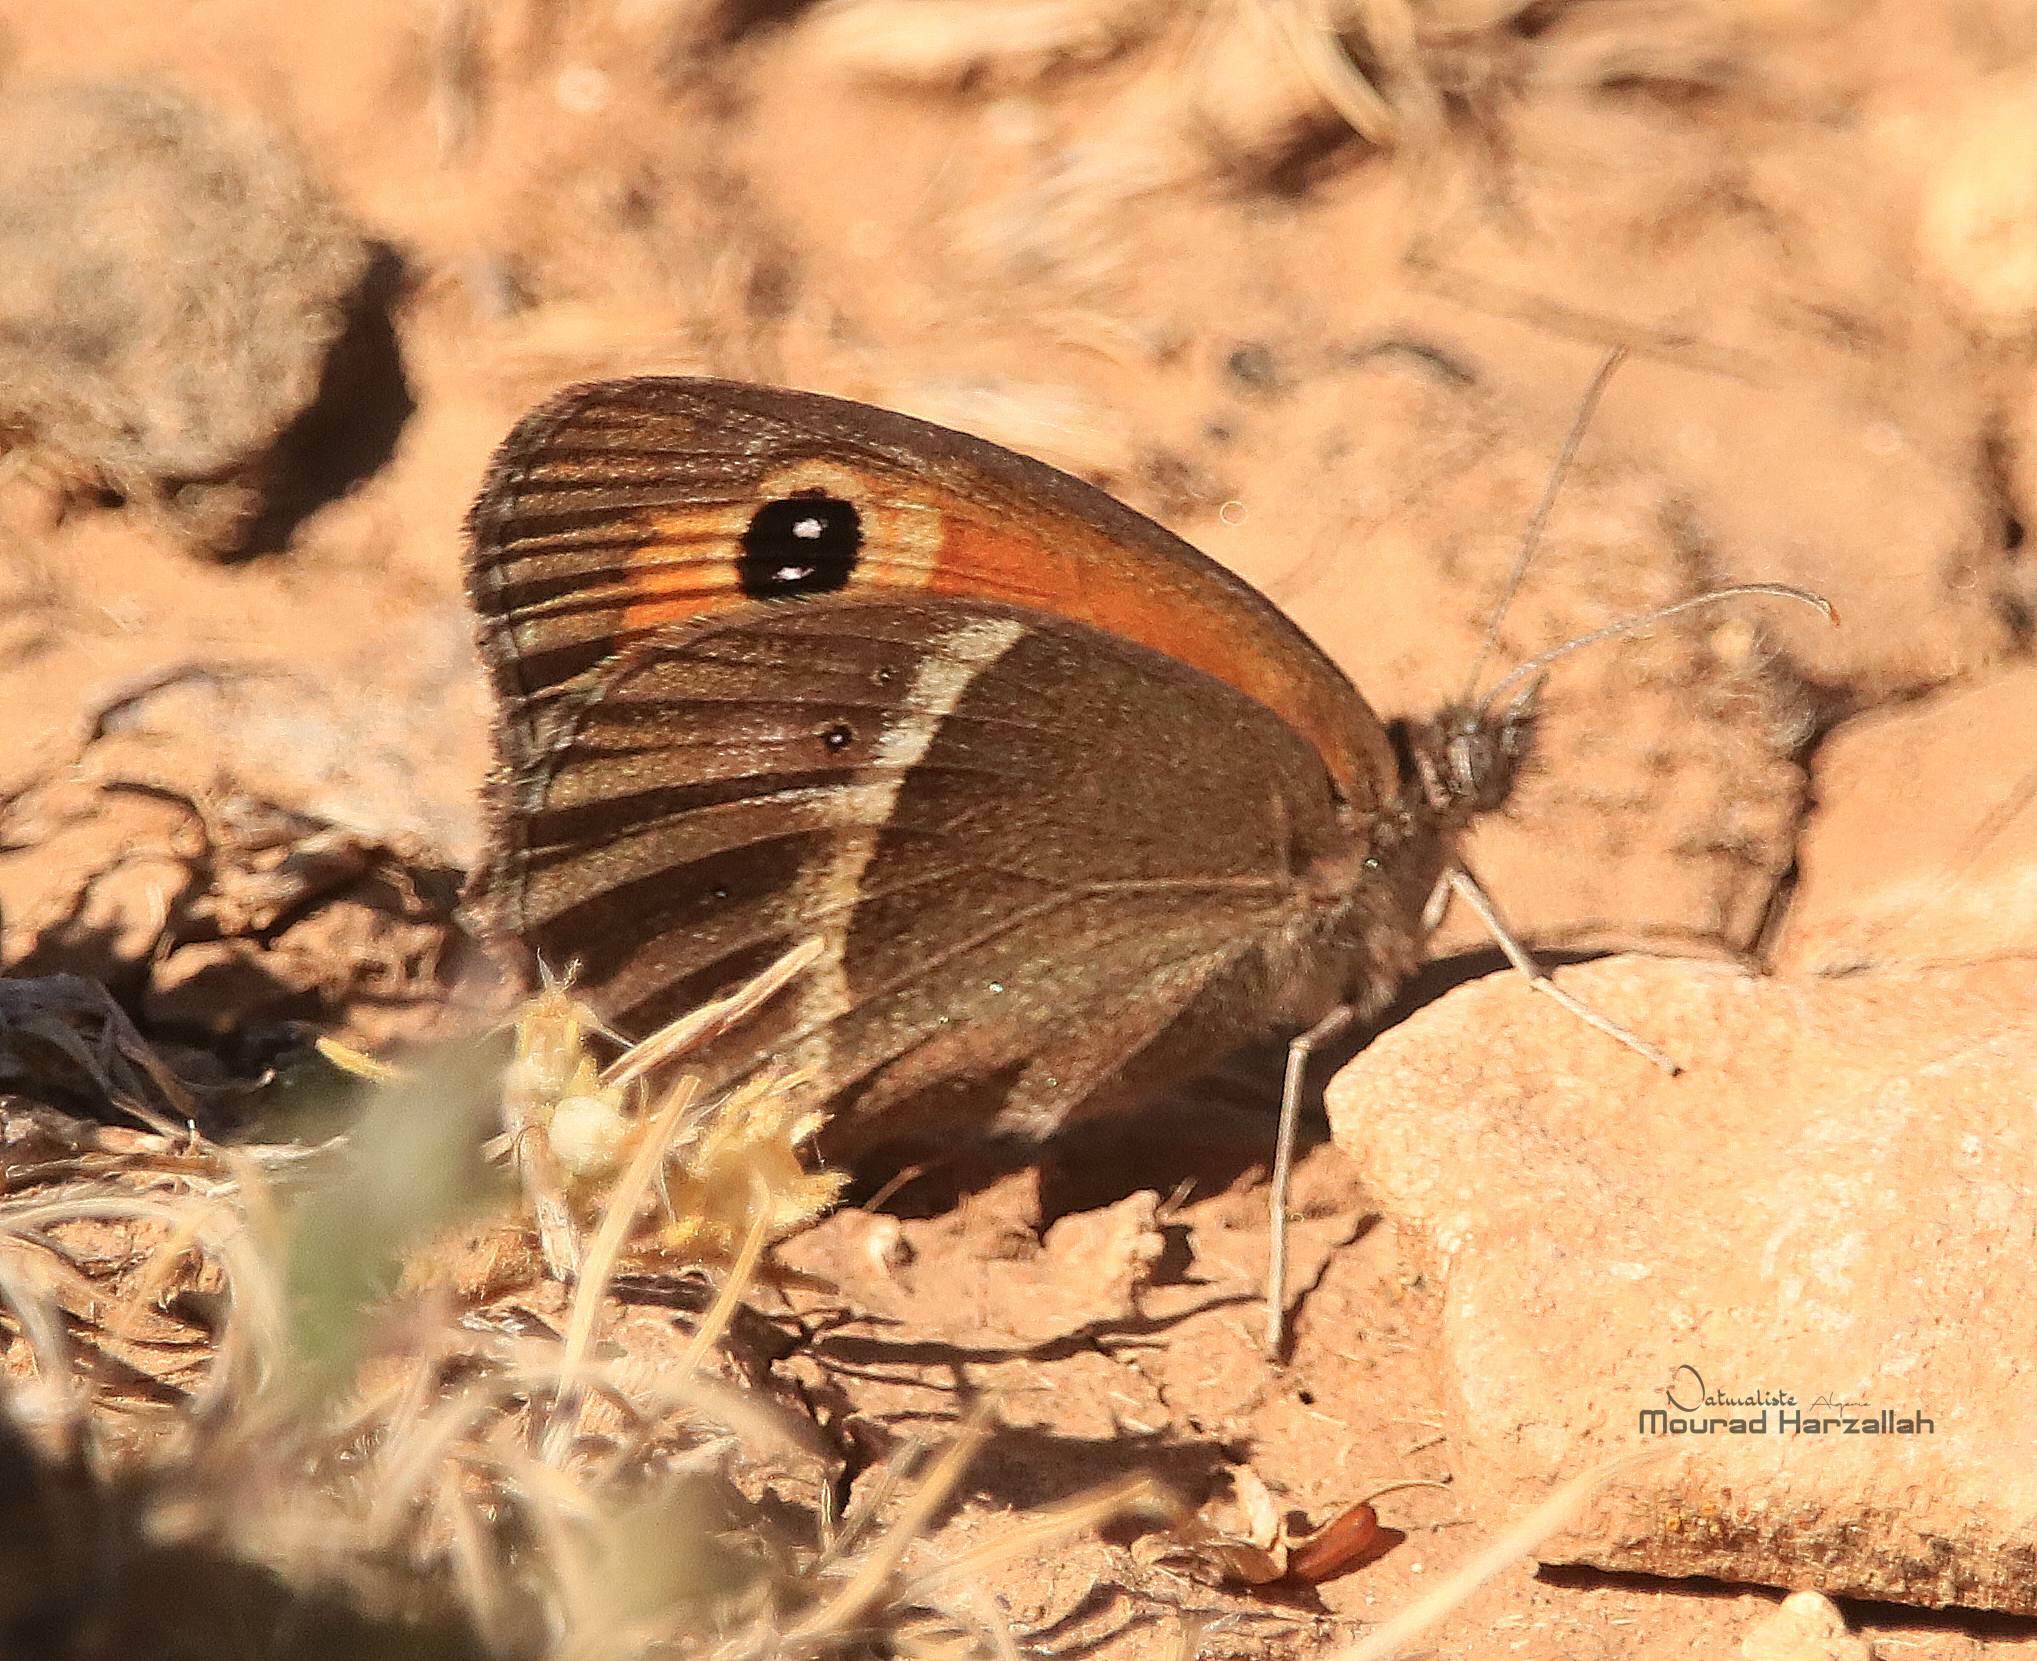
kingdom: Animalia
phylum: Arthropoda
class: Insecta
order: Lepidoptera
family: Nymphalidae
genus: Pyronia
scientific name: Pyronia bathseba
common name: Spanish gatekeeper
